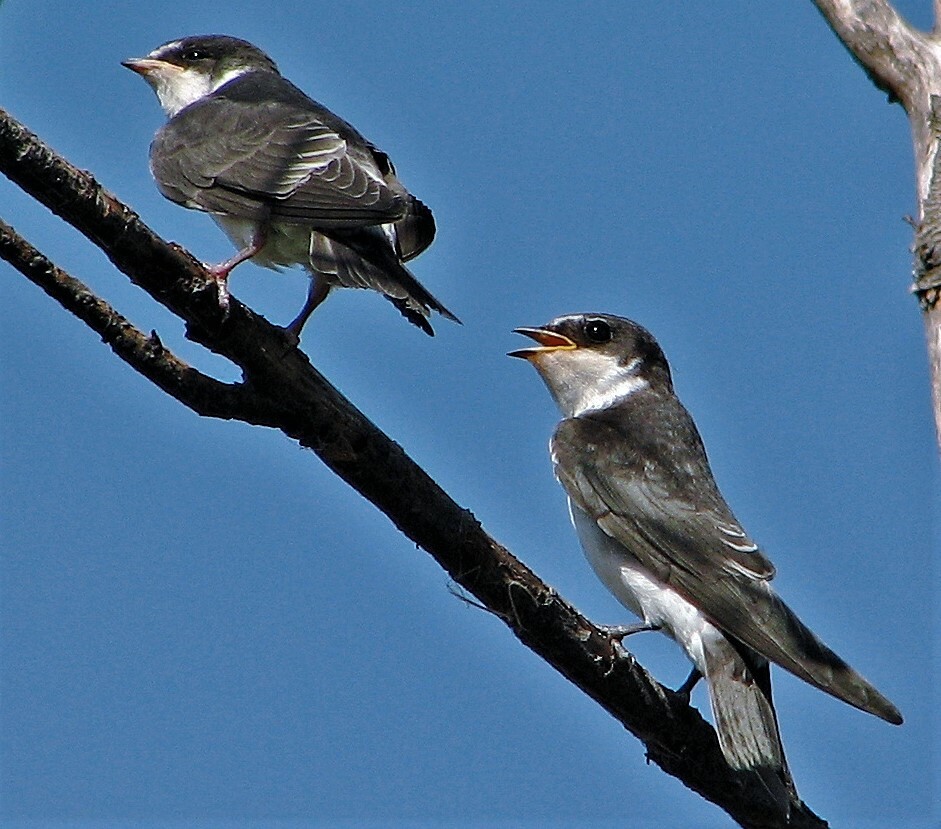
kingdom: Animalia
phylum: Chordata
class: Aves
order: Passeriformes
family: Hirundinidae
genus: Tachycineta
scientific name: Tachycineta leucorrhoa
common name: White-rumped swallow
